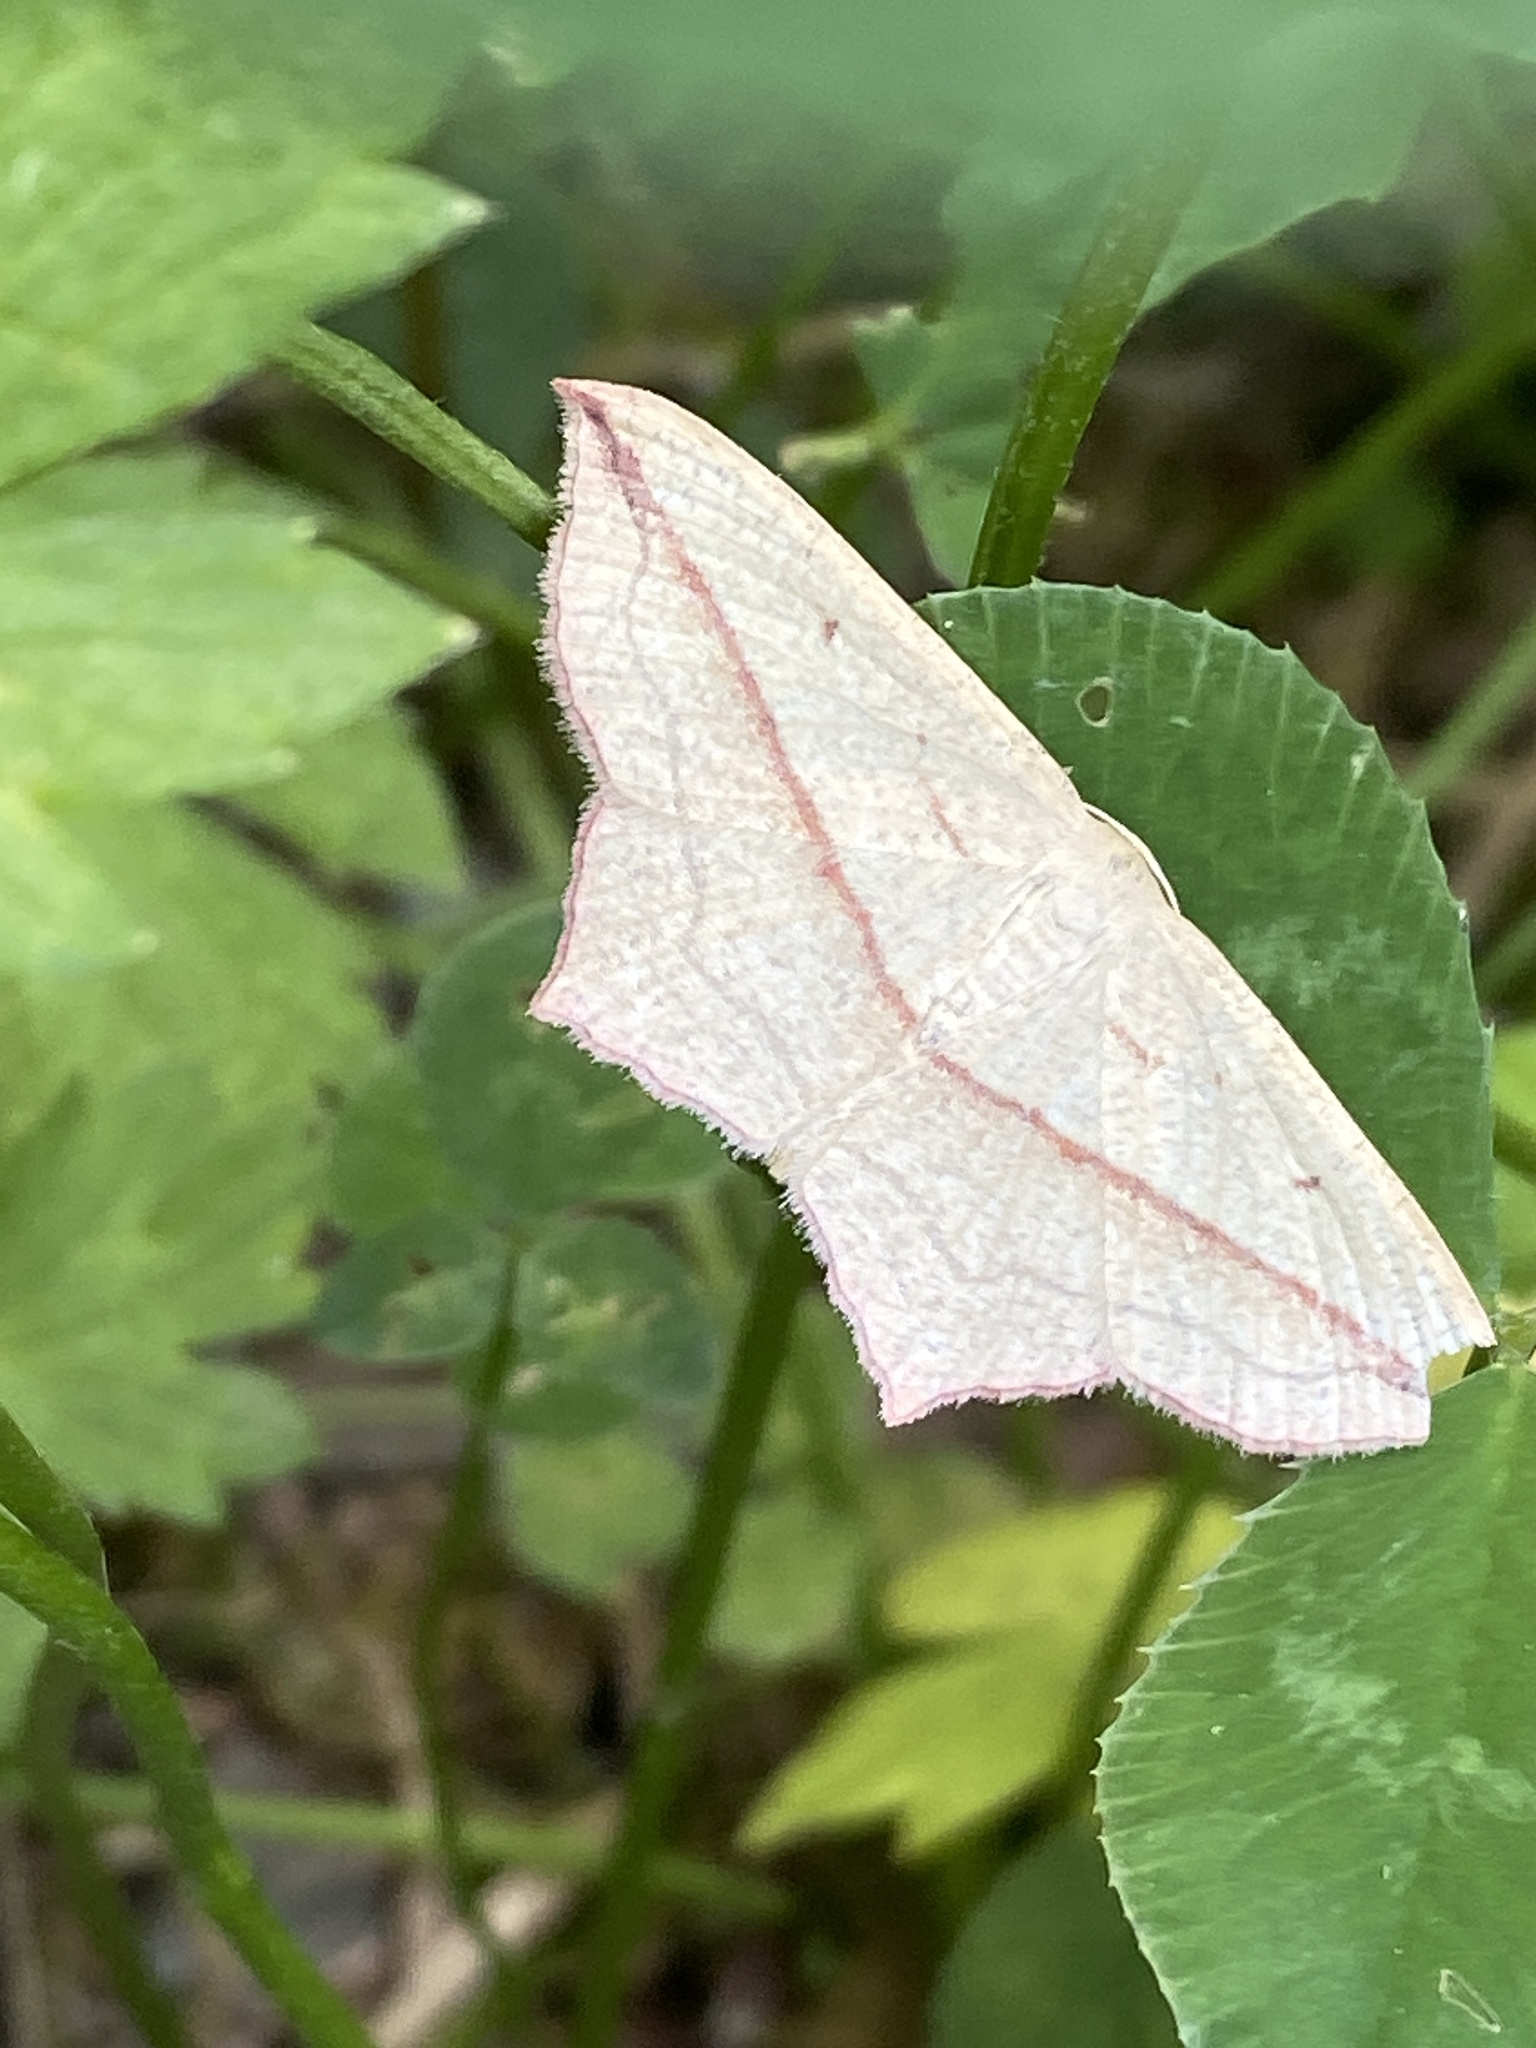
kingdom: Animalia
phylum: Arthropoda
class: Insecta
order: Lepidoptera
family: Geometridae
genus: Timandra
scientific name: Timandra comae
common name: Blood-vein
